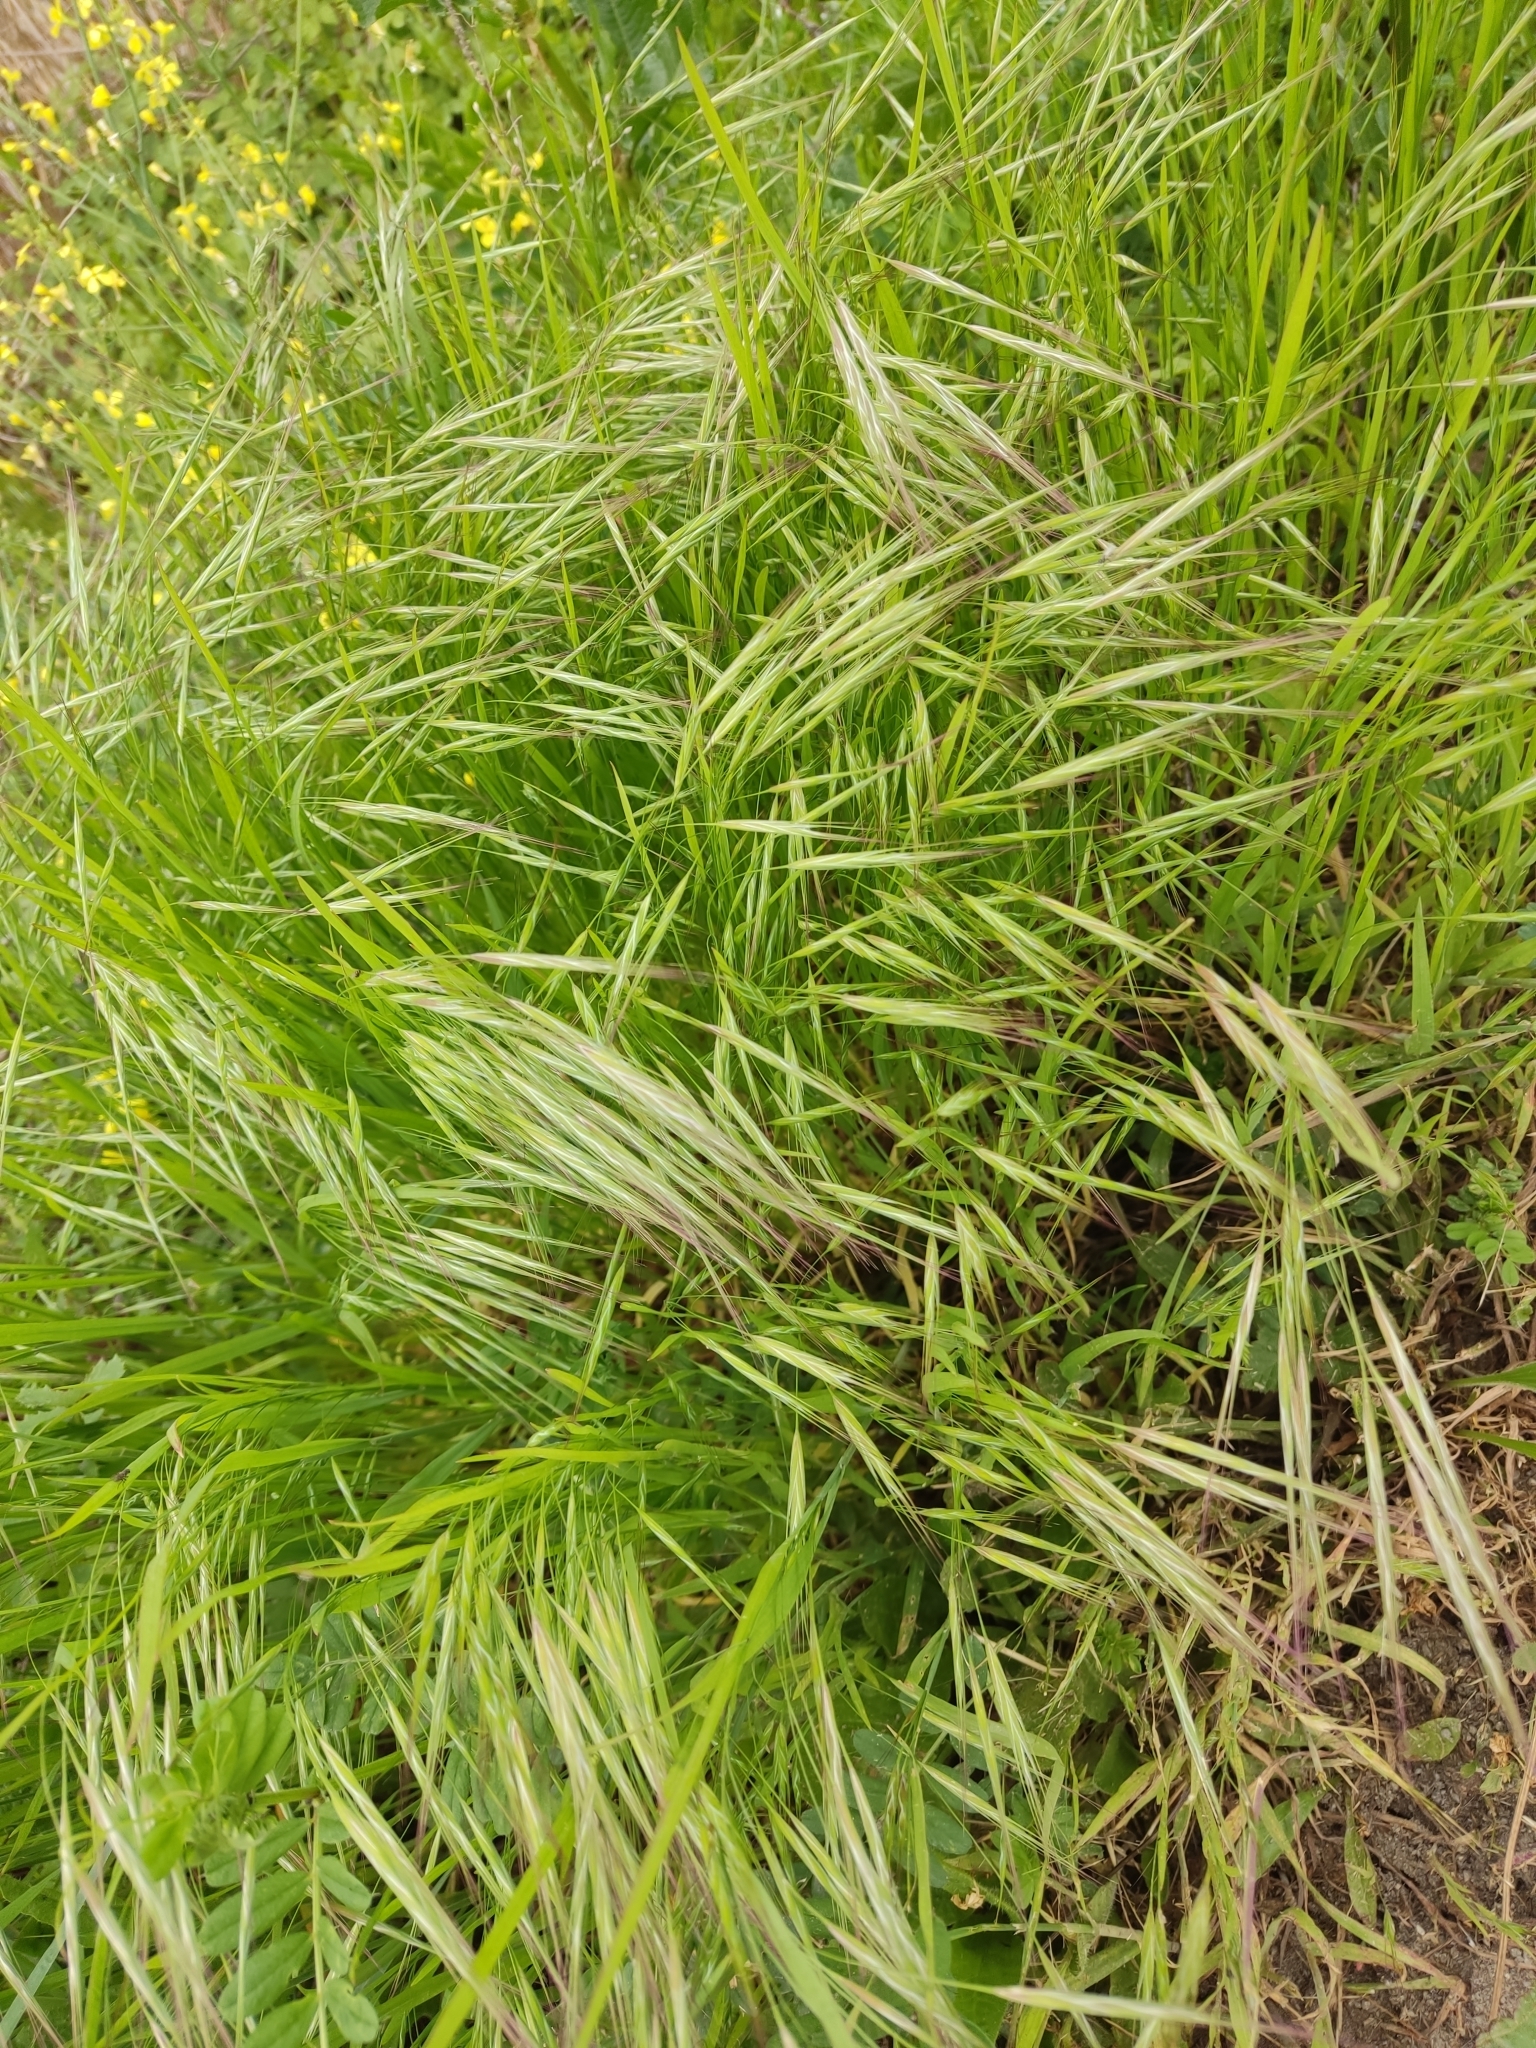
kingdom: Plantae
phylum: Tracheophyta
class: Liliopsida
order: Poales
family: Poaceae
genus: Bromus
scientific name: Bromus sterilis
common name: Poverty brome
